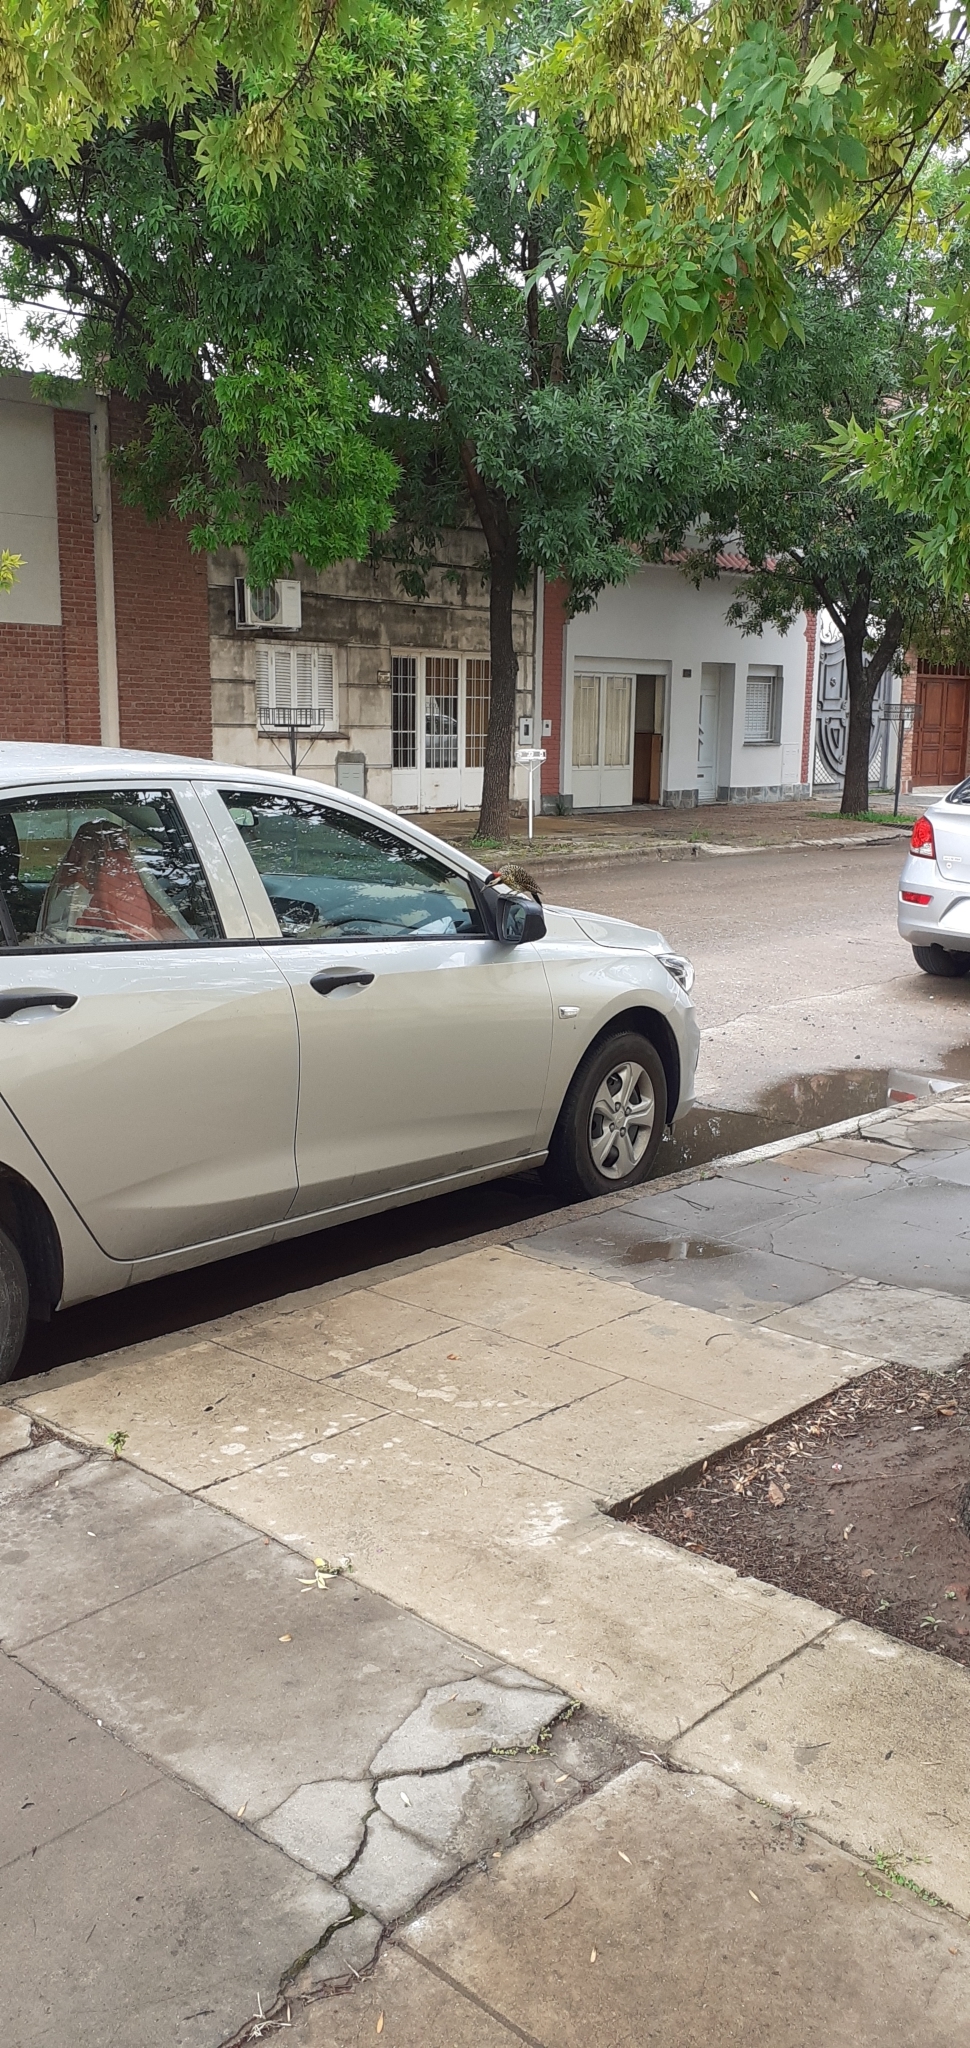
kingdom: Animalia
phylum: Chordata
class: Aves
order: Piciformes
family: Picidae
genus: Colaptes
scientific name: Colaptes melanochloros
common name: Green-barred woodpecker
